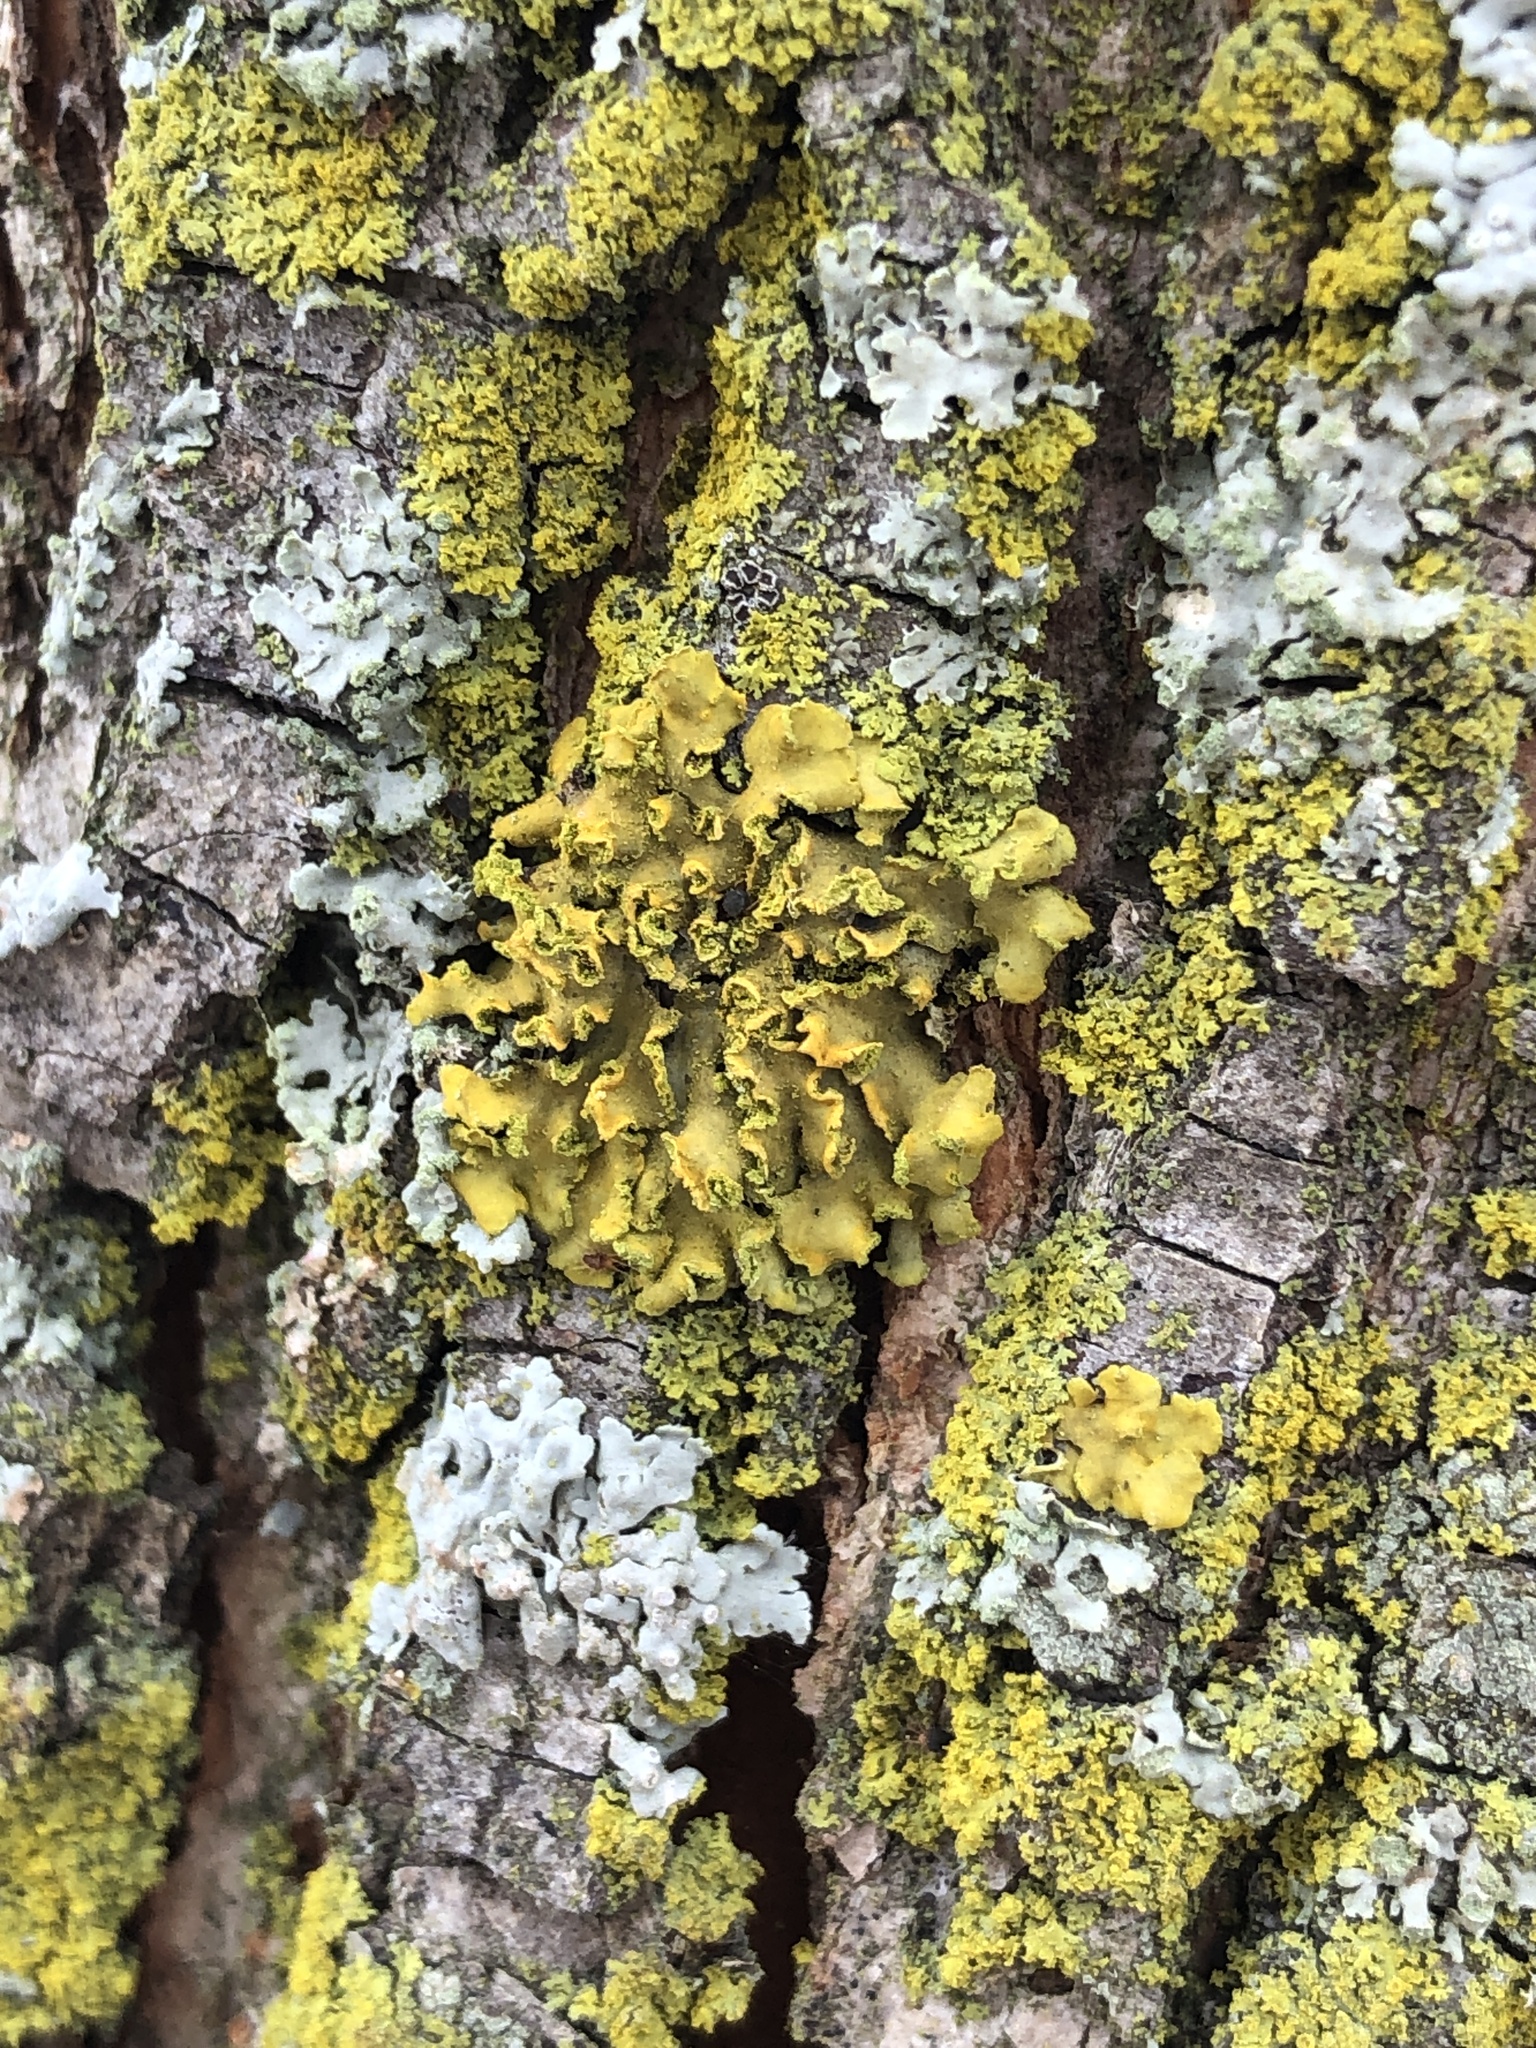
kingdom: Fungi
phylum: Ascomycota
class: Lecanoromycetes
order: Teloschistales
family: Teloschistaceae
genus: Oxneria
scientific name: Oxneria fallax
